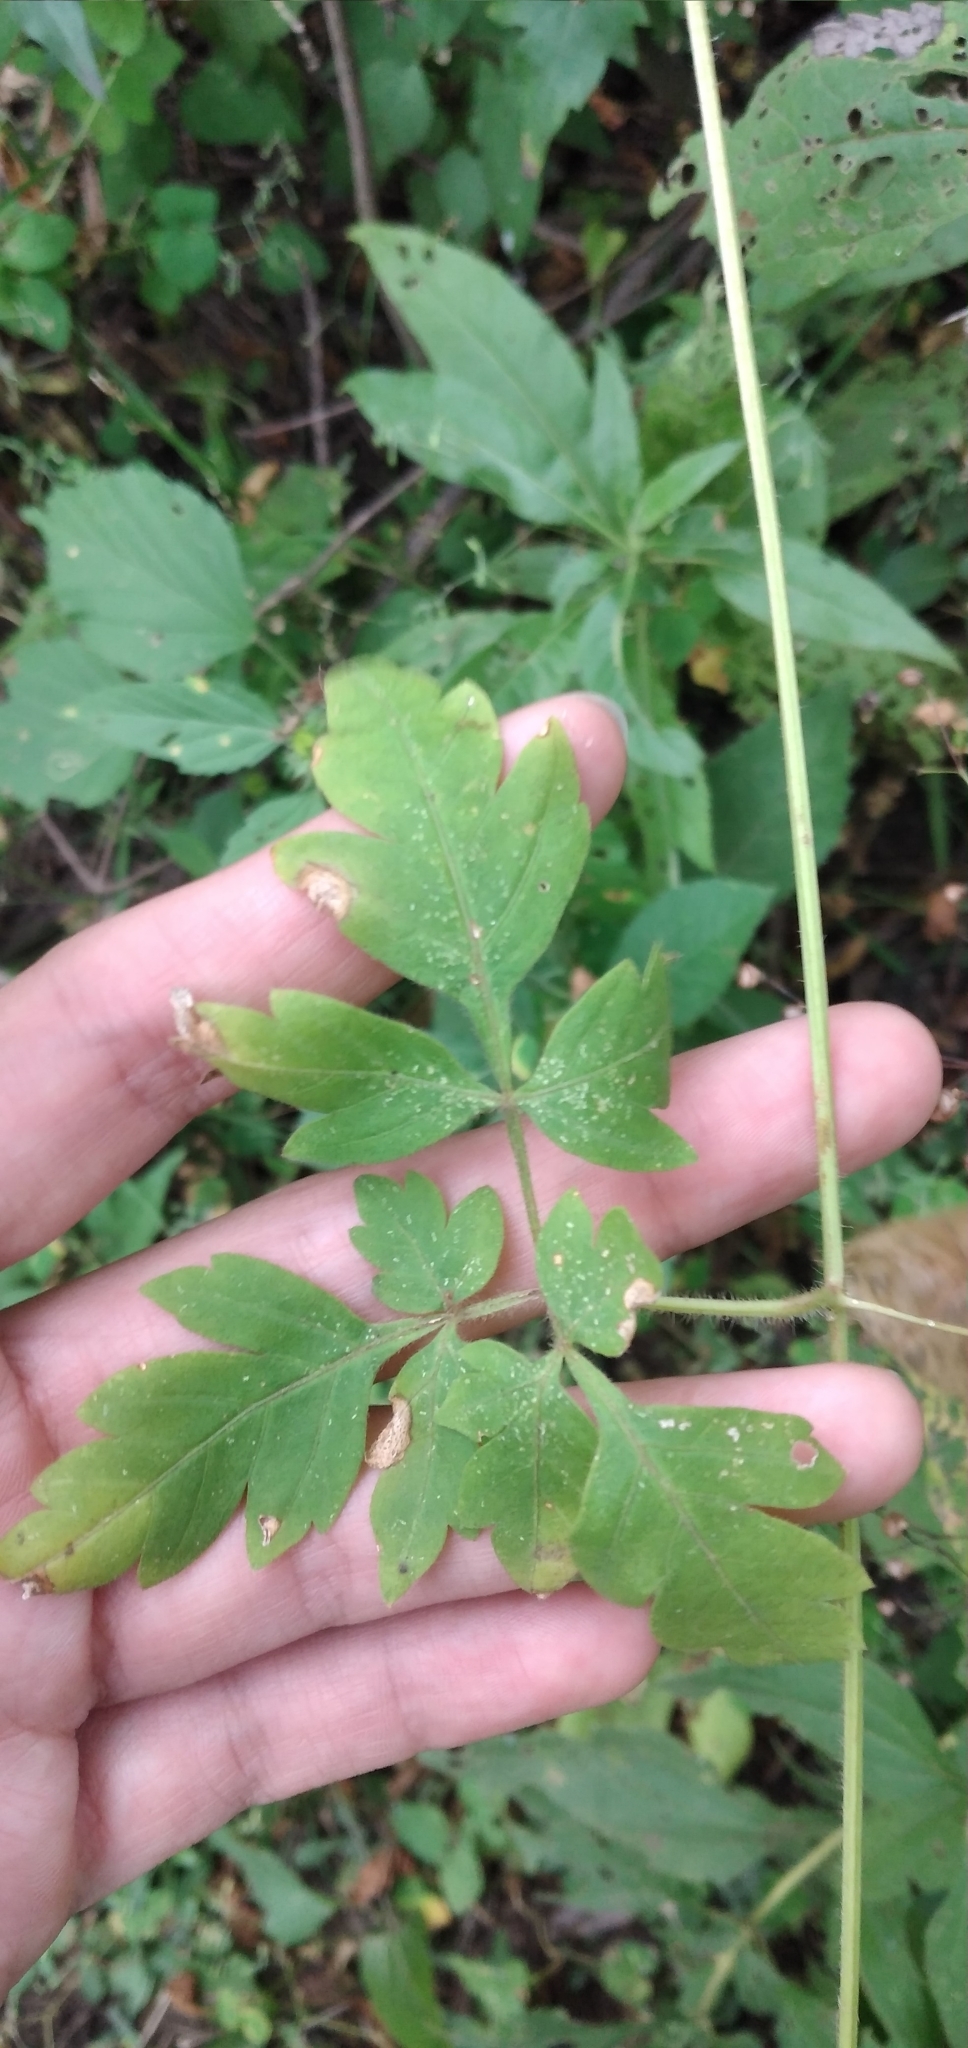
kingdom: Plantae
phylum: Tracheophyta
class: Magnoliopsida
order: Sapindales
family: Sapindaceae
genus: Cardiospermum
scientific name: Cardiospermum grandiflorum
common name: Balloon vine
